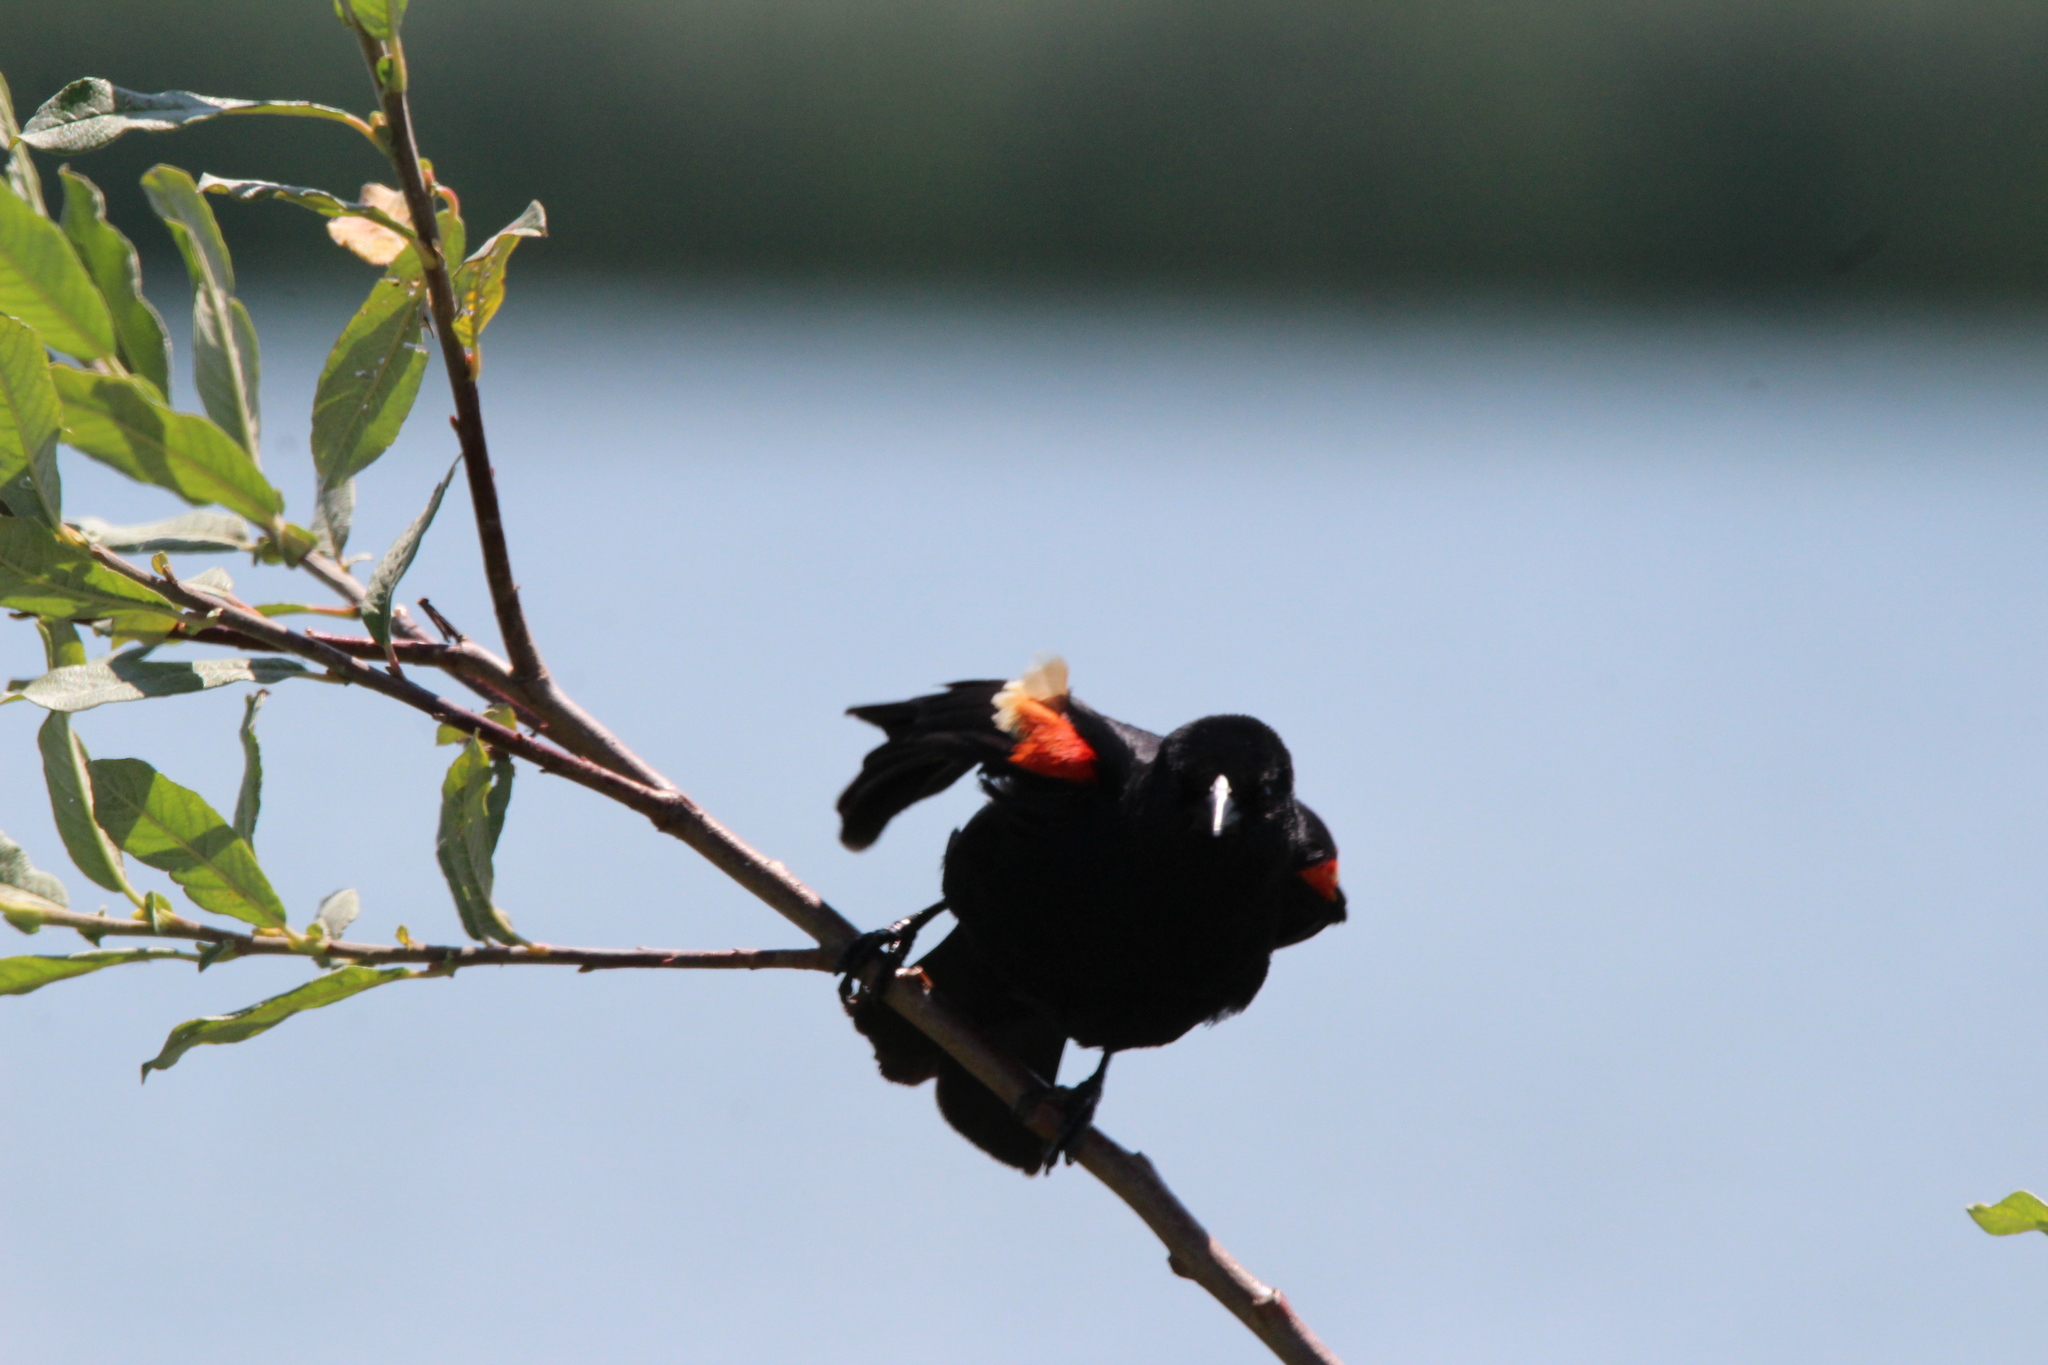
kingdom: Animalia
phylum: Chordata
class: Aves
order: Passeriformes
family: Icteridae
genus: Agelaius
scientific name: Agelaius phoeniceus
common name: Red-winged blackbird
